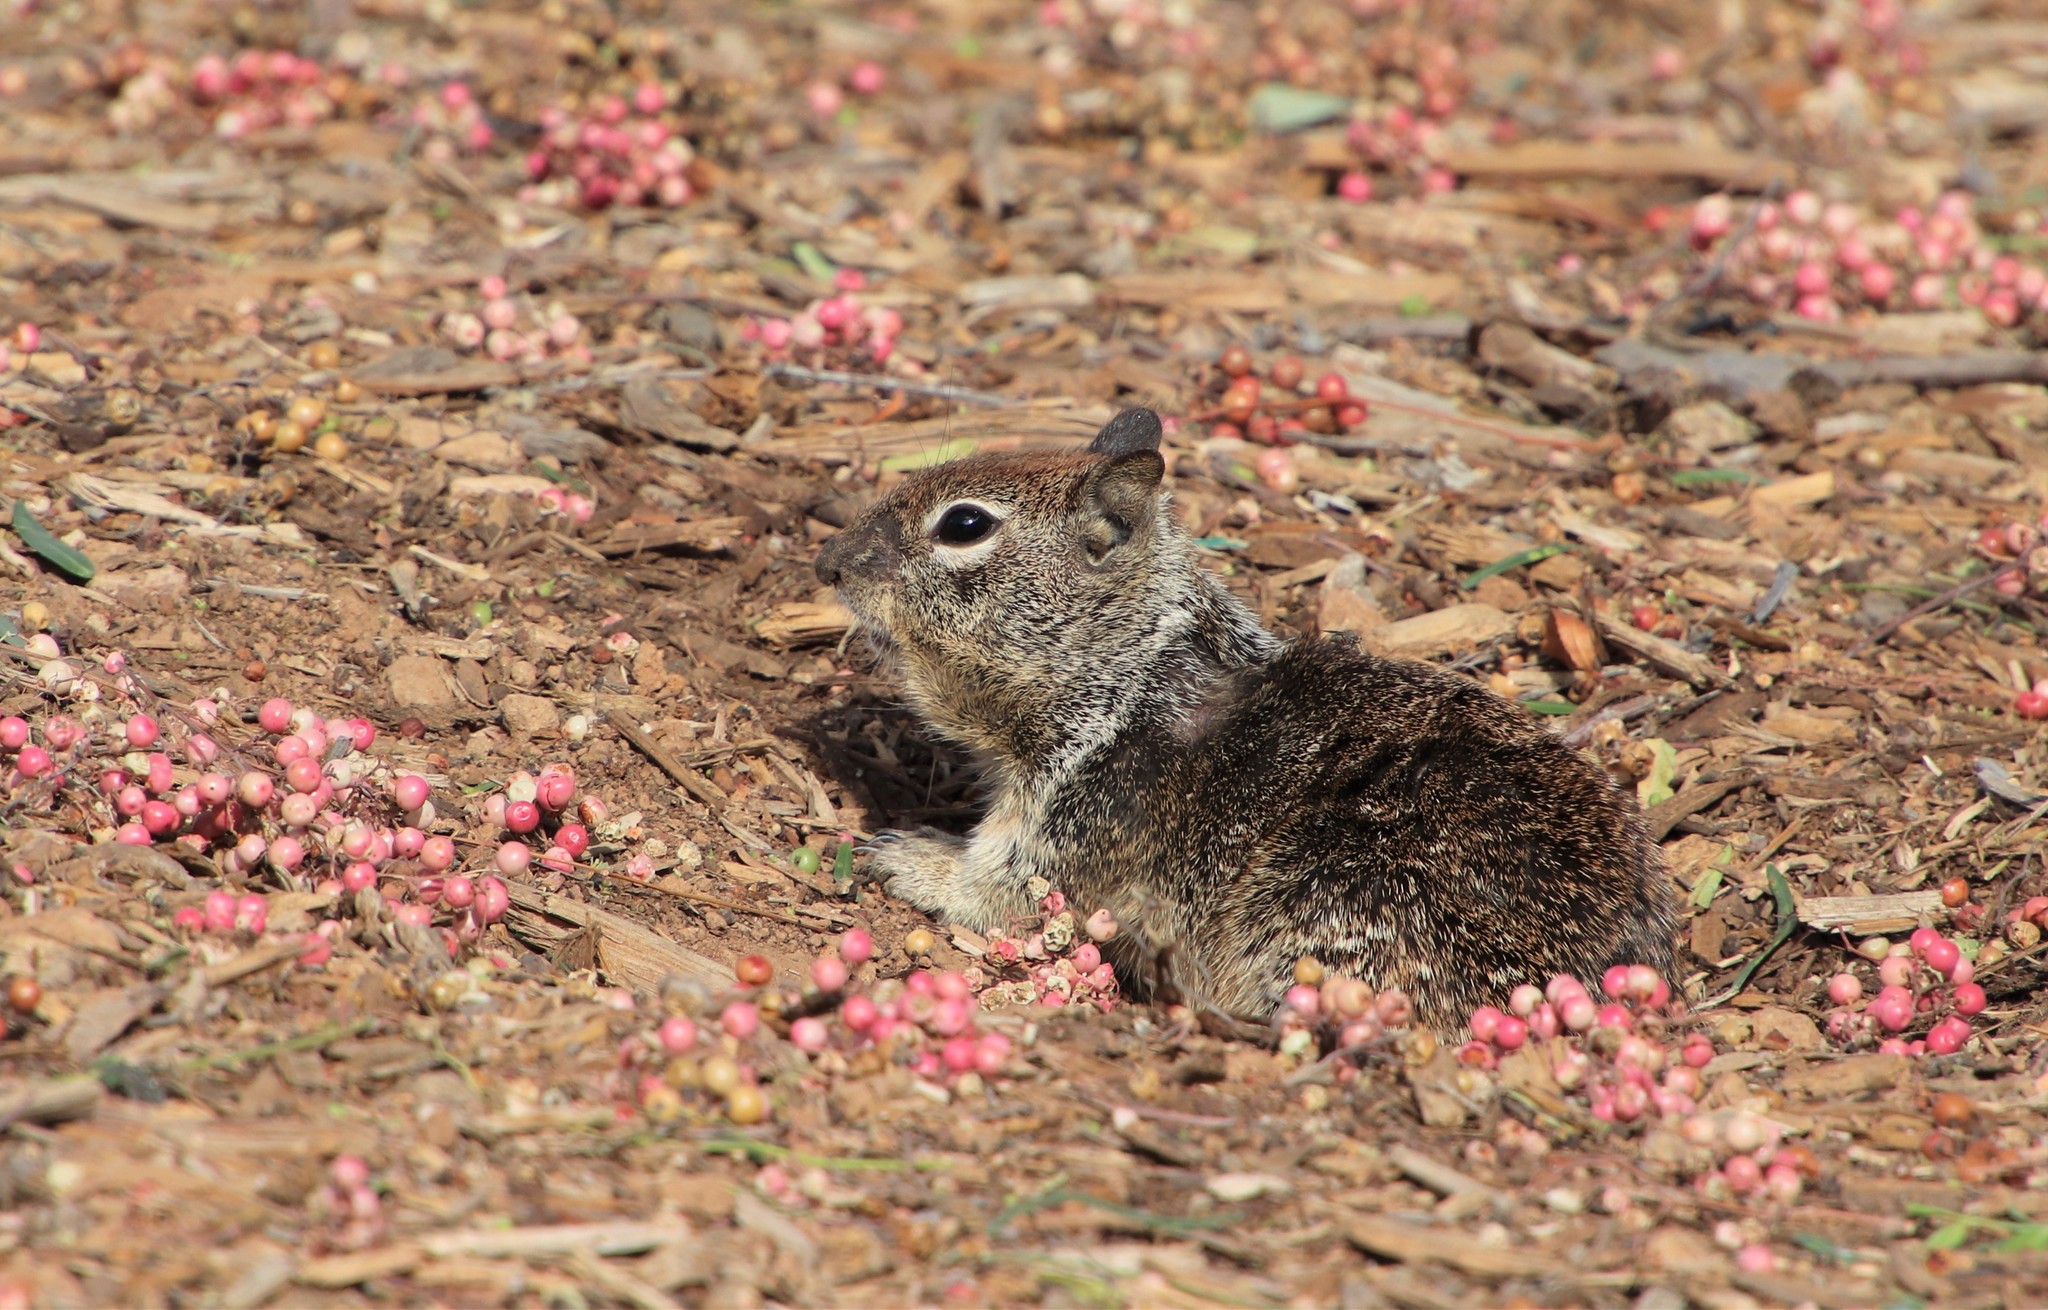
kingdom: Animalia
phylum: Chordata
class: Mammalia
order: Rodentia
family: Sciuridae
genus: Otospermophilus
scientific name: Otospermophilus beecheyi
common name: California ground squirrel
